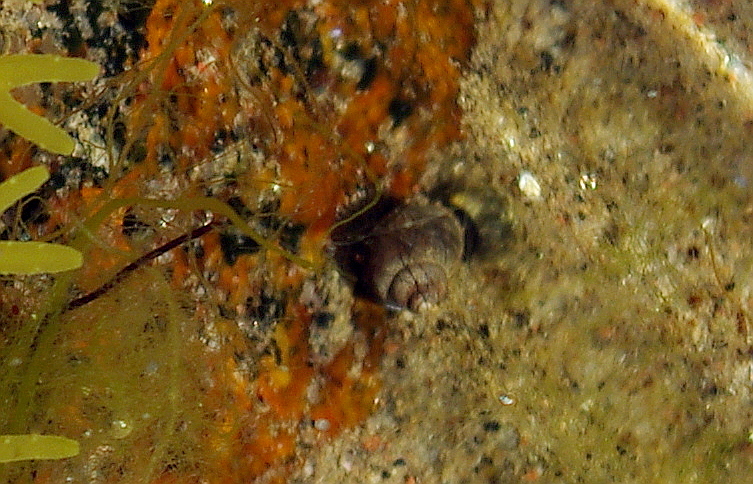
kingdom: Animalia
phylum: Mollusca
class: Gastropoda
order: Littorinimorpha
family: Littorinidae
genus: Littorina
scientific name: Littorina saxatilis
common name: Black-lined periwinkle
